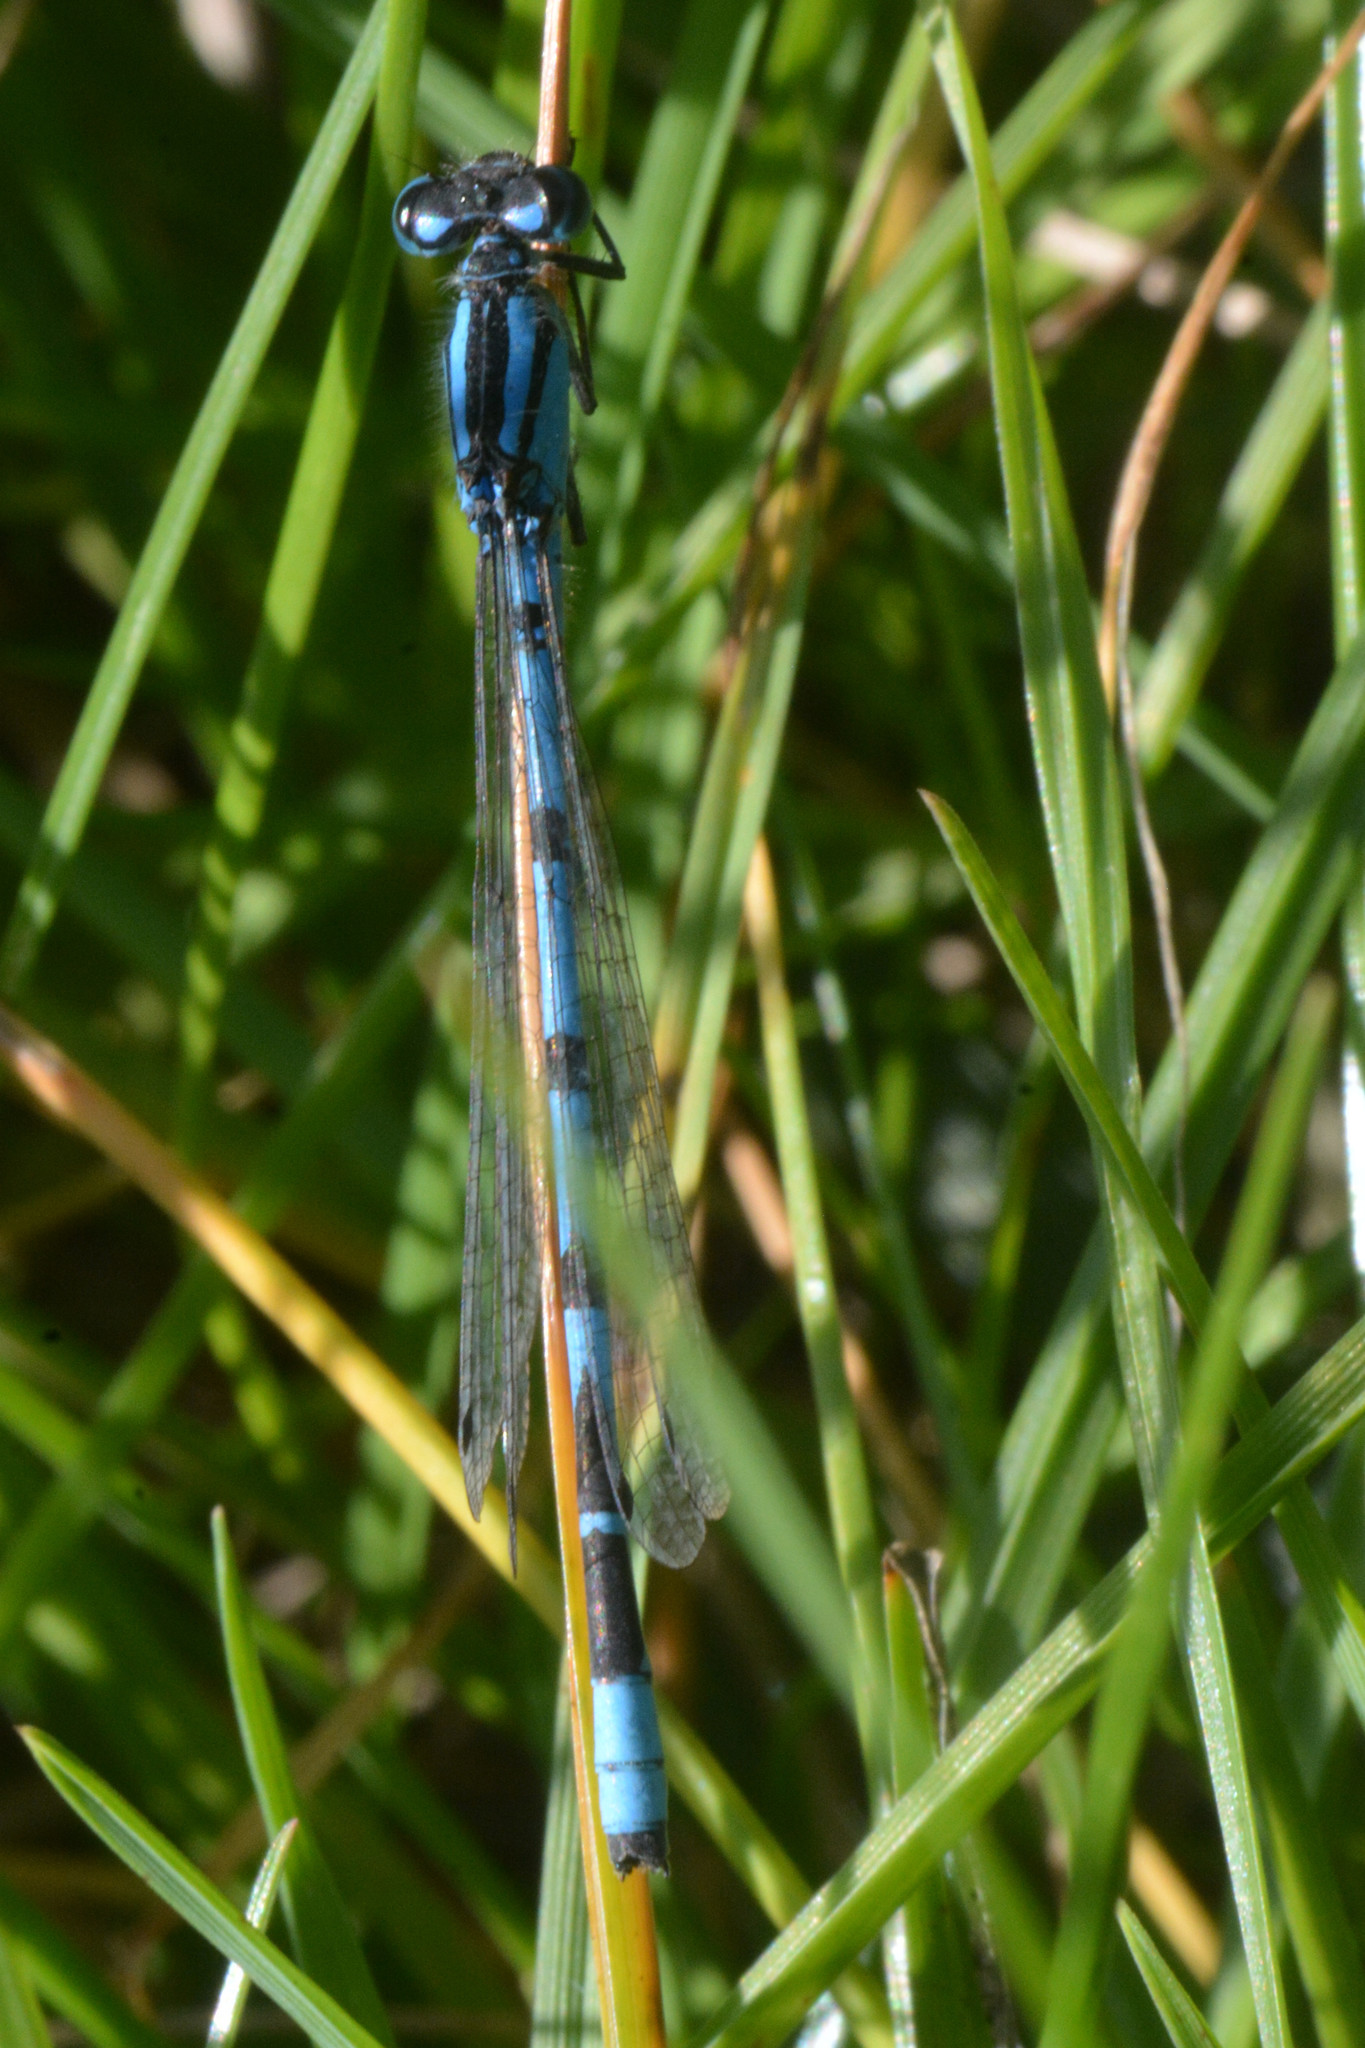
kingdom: Animalia
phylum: Arthropoda
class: Insecta
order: Odonata
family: Coenagrionidae
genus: Enallagma
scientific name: Enallagma cyathigerum
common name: Common blue damselfly
